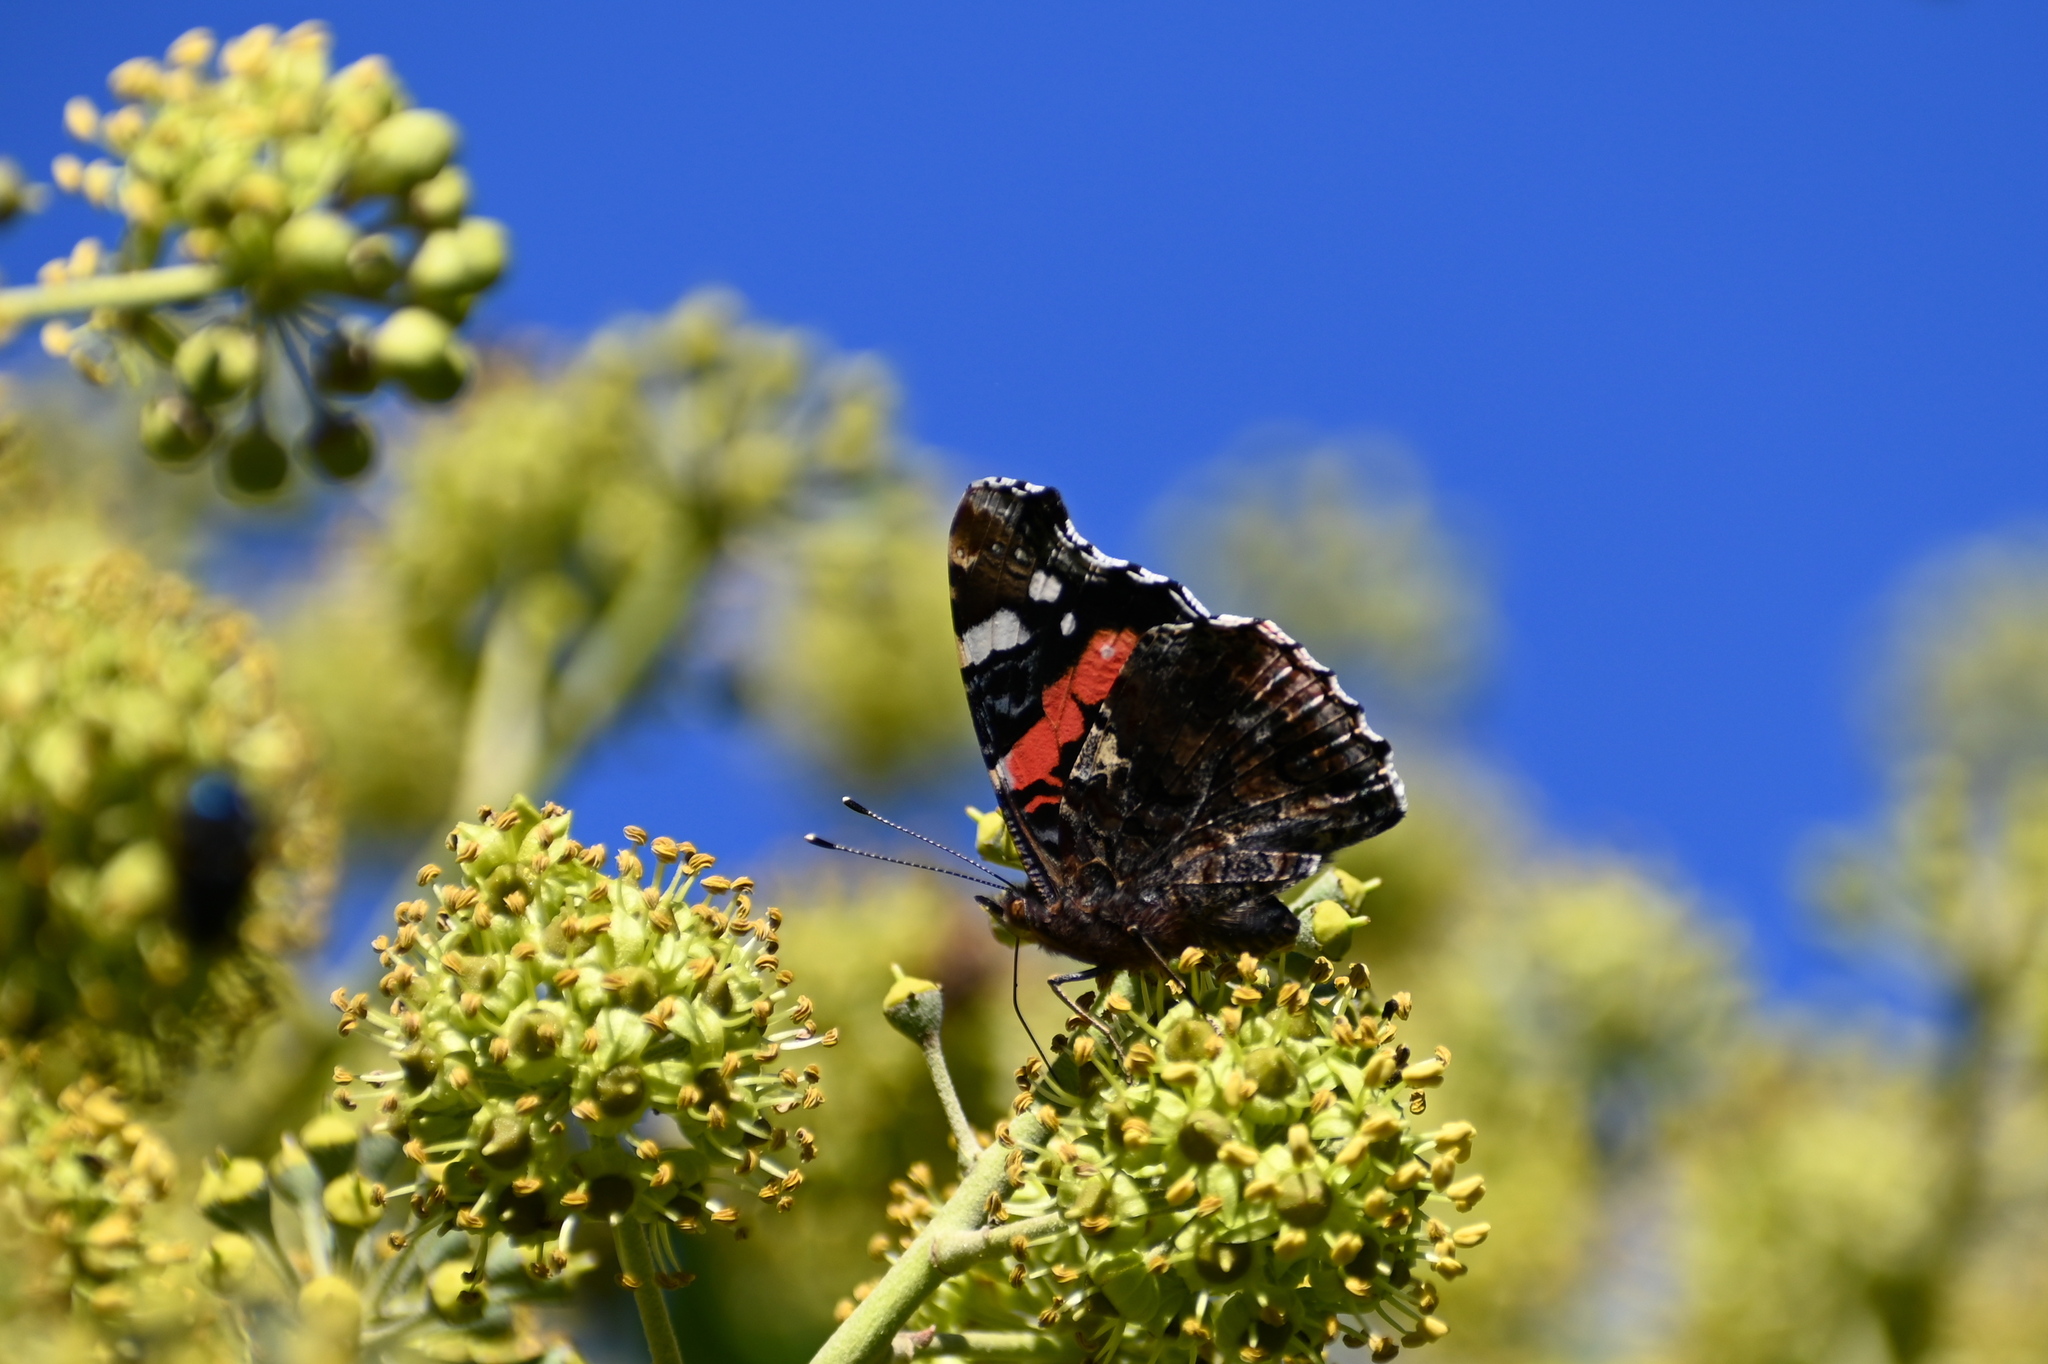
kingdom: Animalia
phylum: Arthropoda
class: Insecta
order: Lepidoptera
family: Nymphalidae
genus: Vanessa
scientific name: Vanessa atalanta
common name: Red admiral
